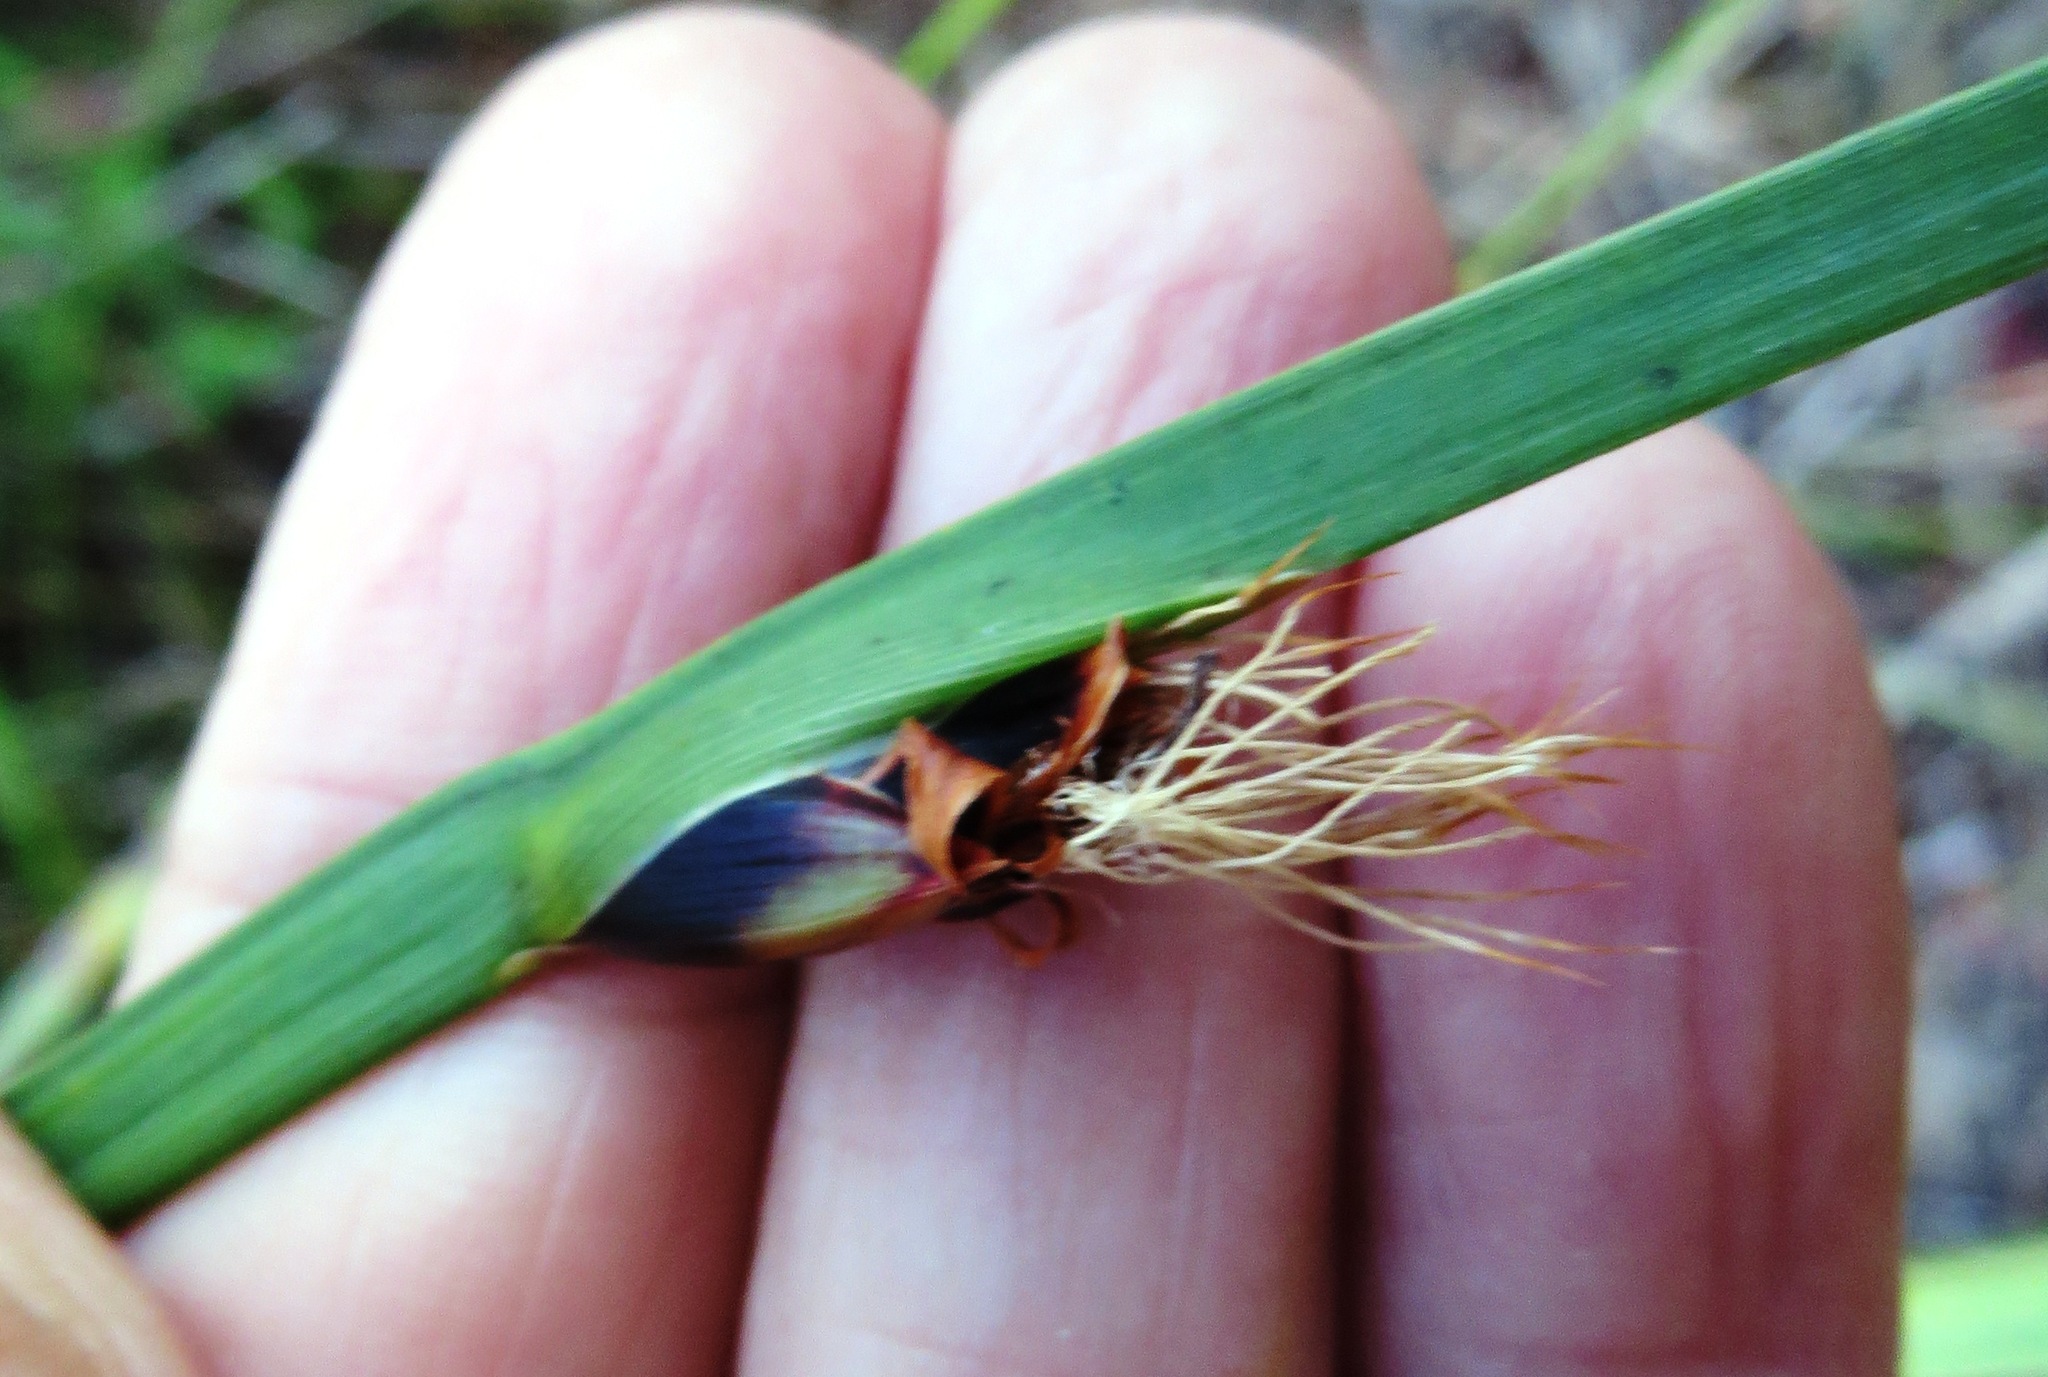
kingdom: Plantae
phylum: Tracheophyta
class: Liliopsida
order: Poales
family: Cyperaceae
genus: Chrysitrix
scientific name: Chrysitrix capensis
